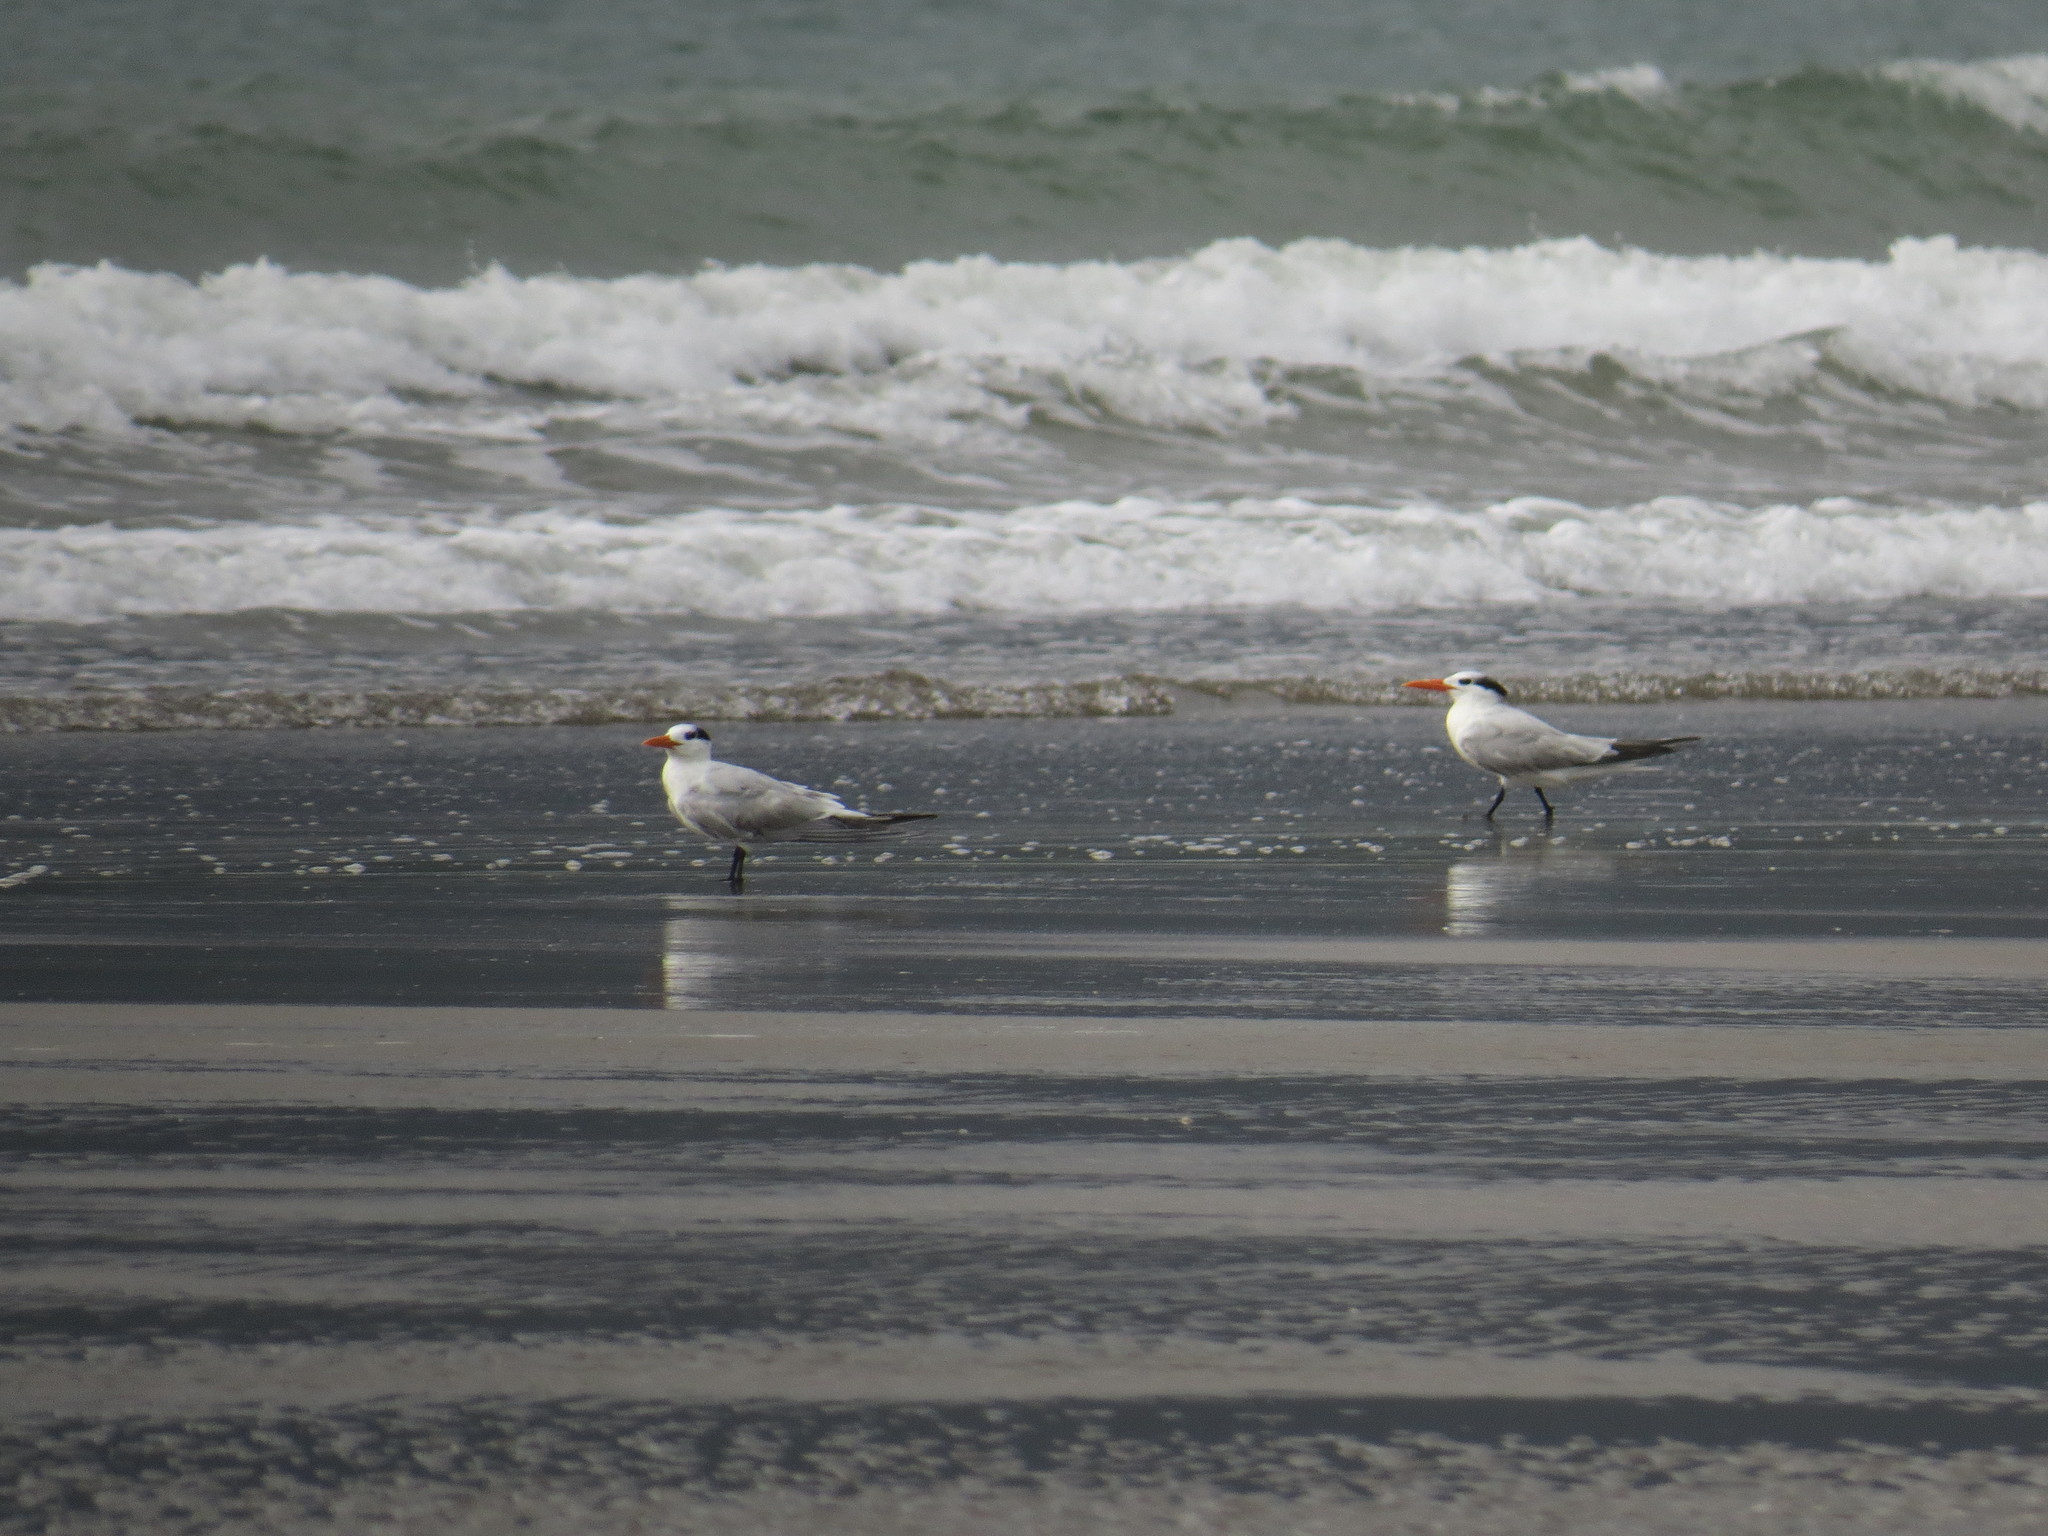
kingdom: Animalia
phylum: Chordata
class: Aves
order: Charadriiformes
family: Laridae
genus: Thalasseus
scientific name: Thalasseus maximus
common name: Royal tern
